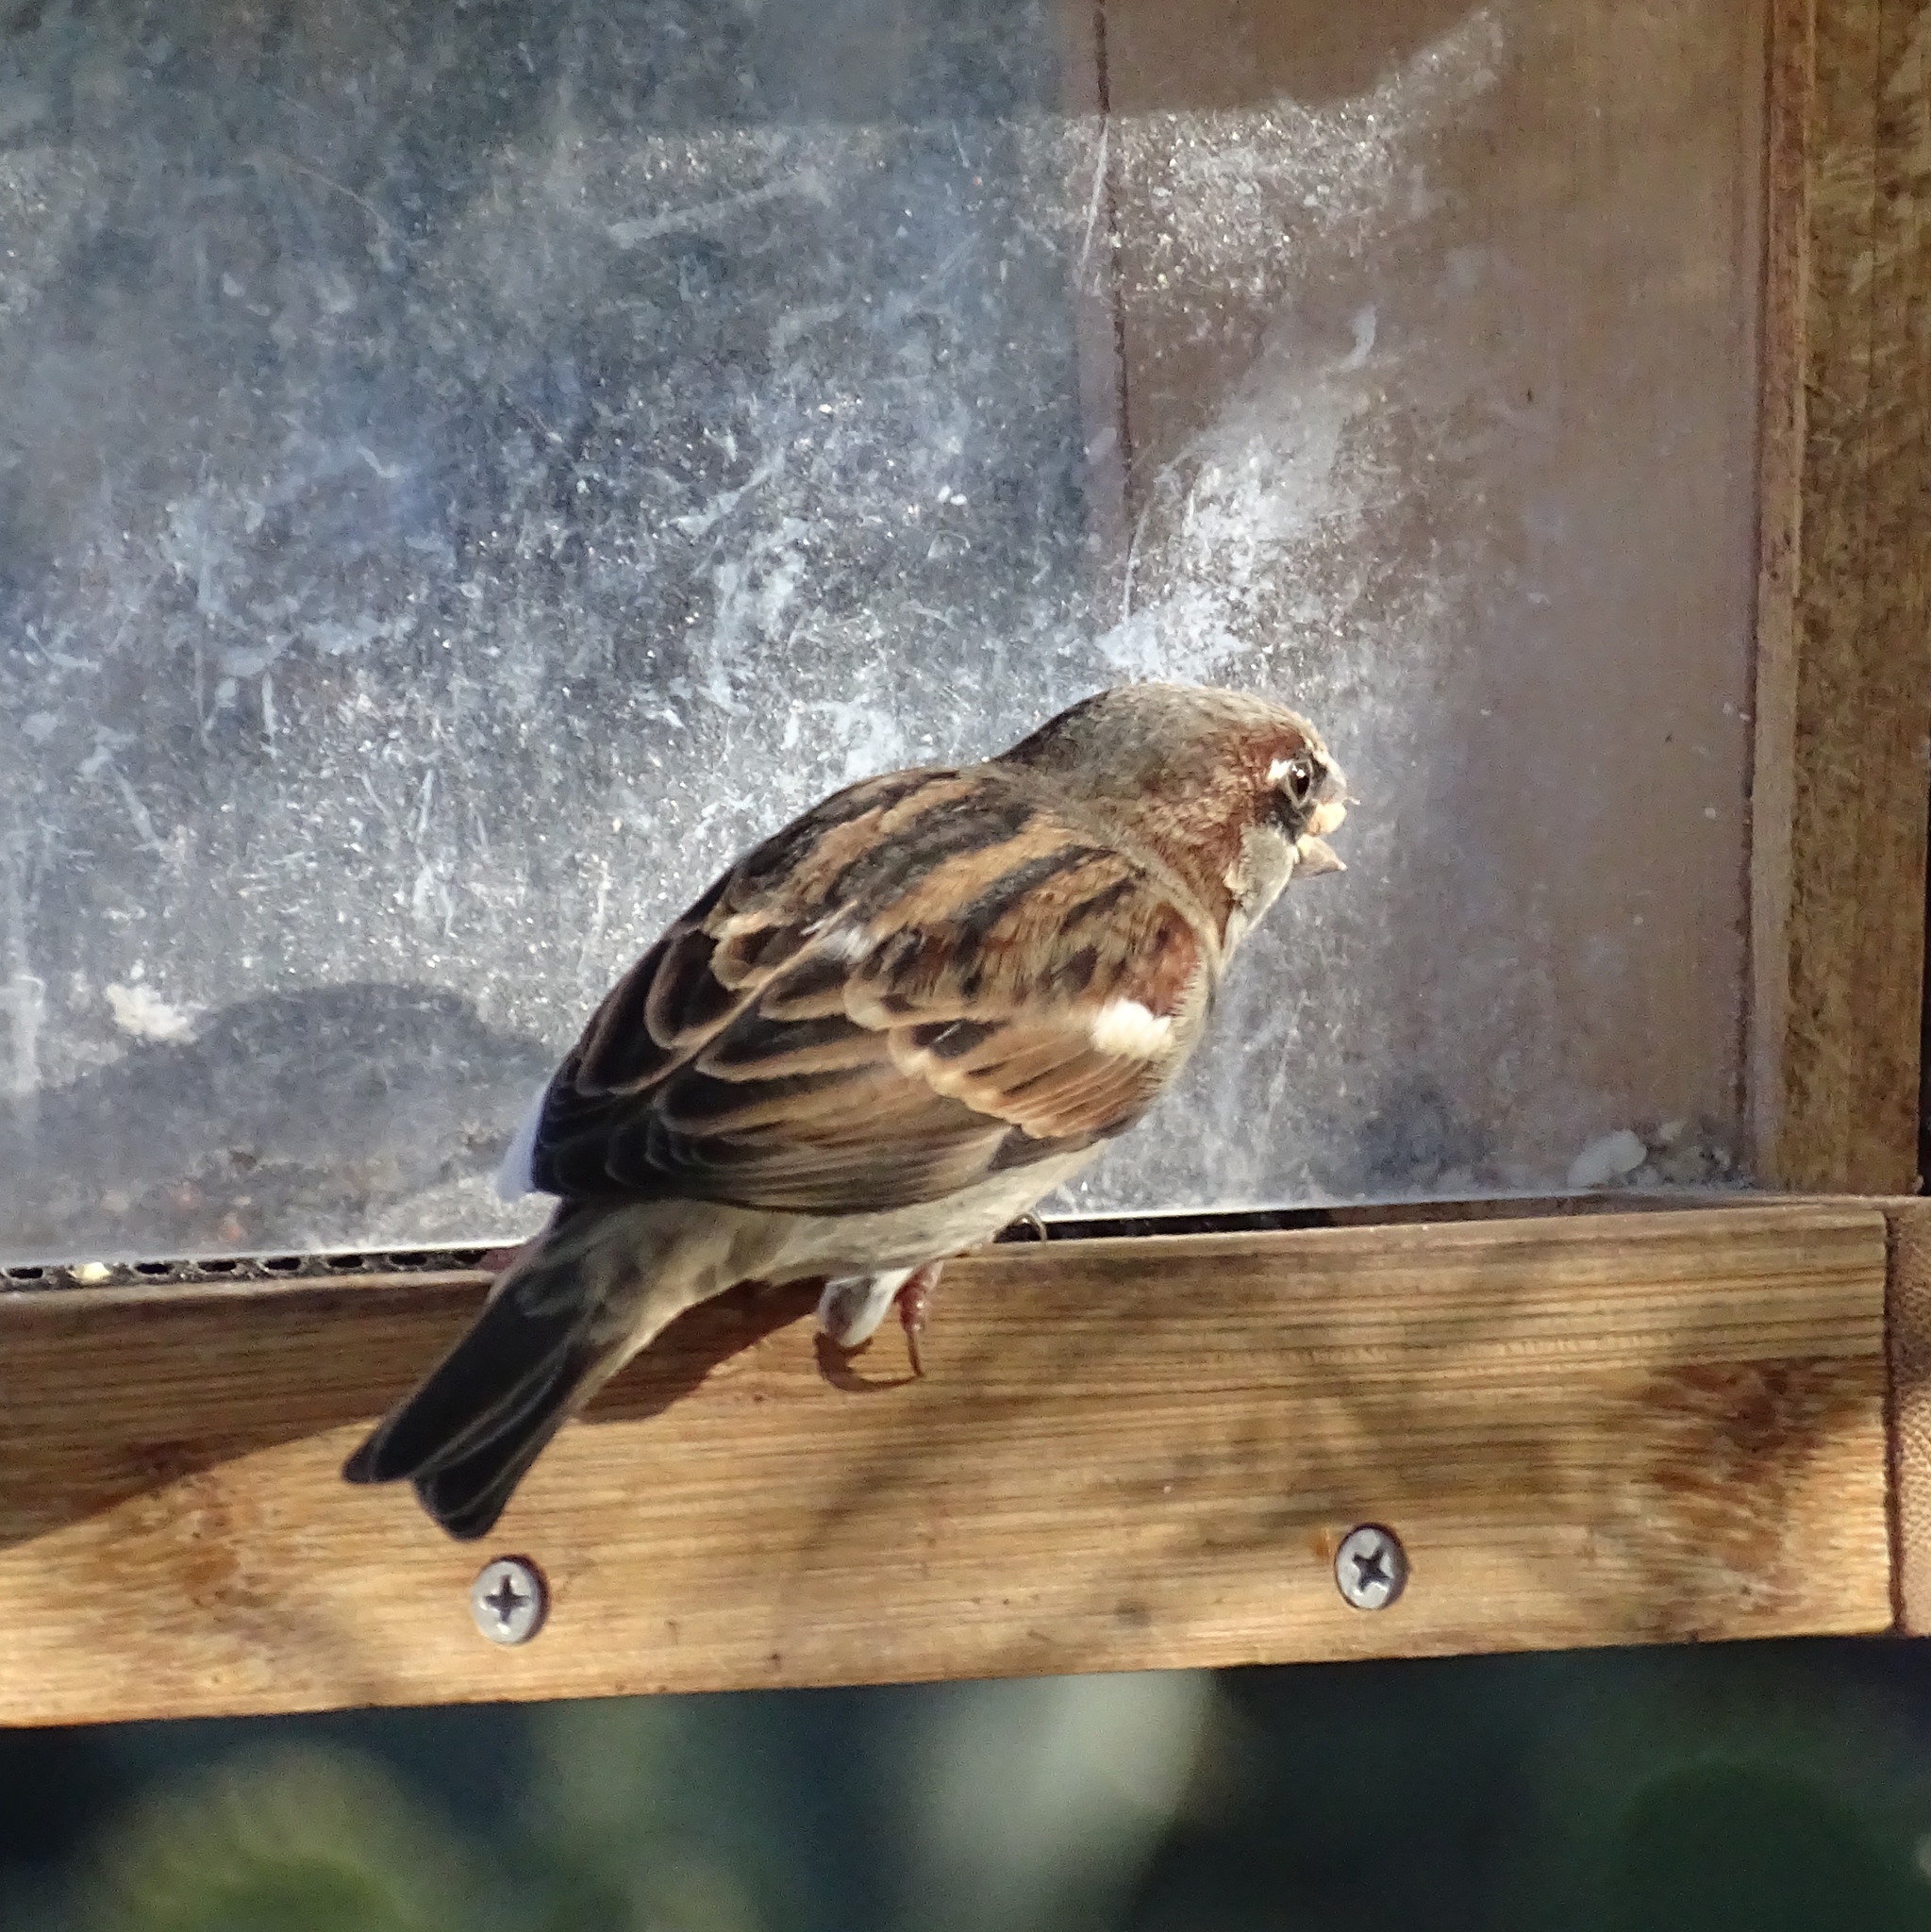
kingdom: Animalia
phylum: Chordata
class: Aves
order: Passeriformes
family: Passeridae
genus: Passer
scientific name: Passer domesticus
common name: House sparrow
